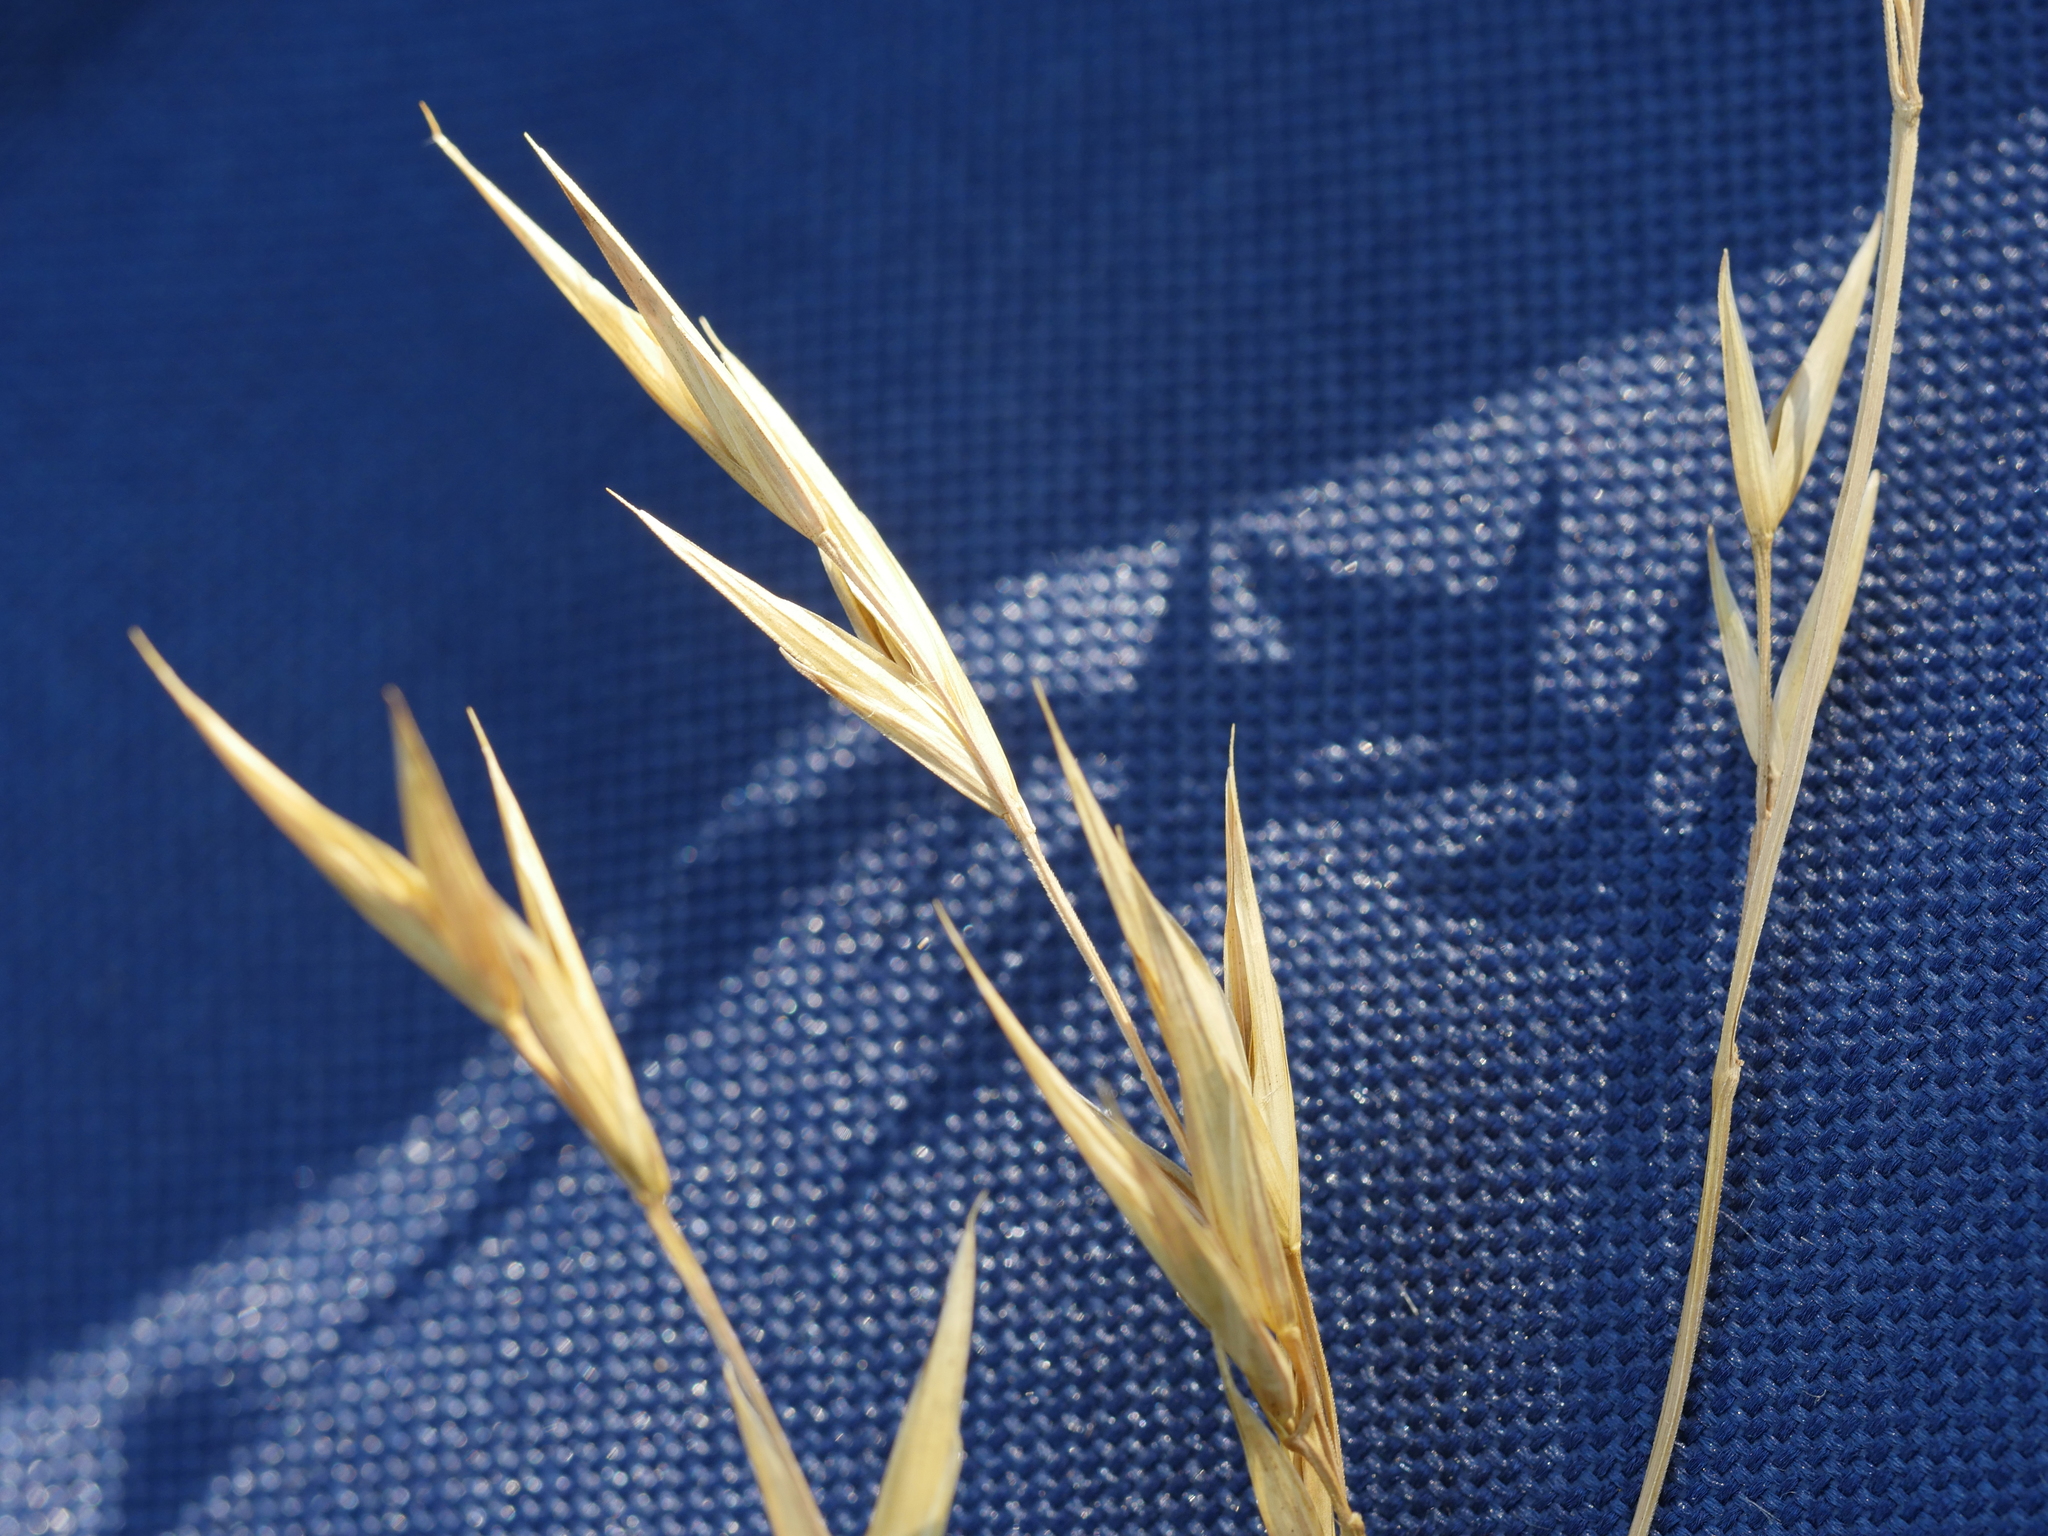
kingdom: Plantae
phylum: Tracheophyta
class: Liliopsida
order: Poales
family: Poaceae
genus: Bromus
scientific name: Bromus catharticus
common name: Rescuegrass
